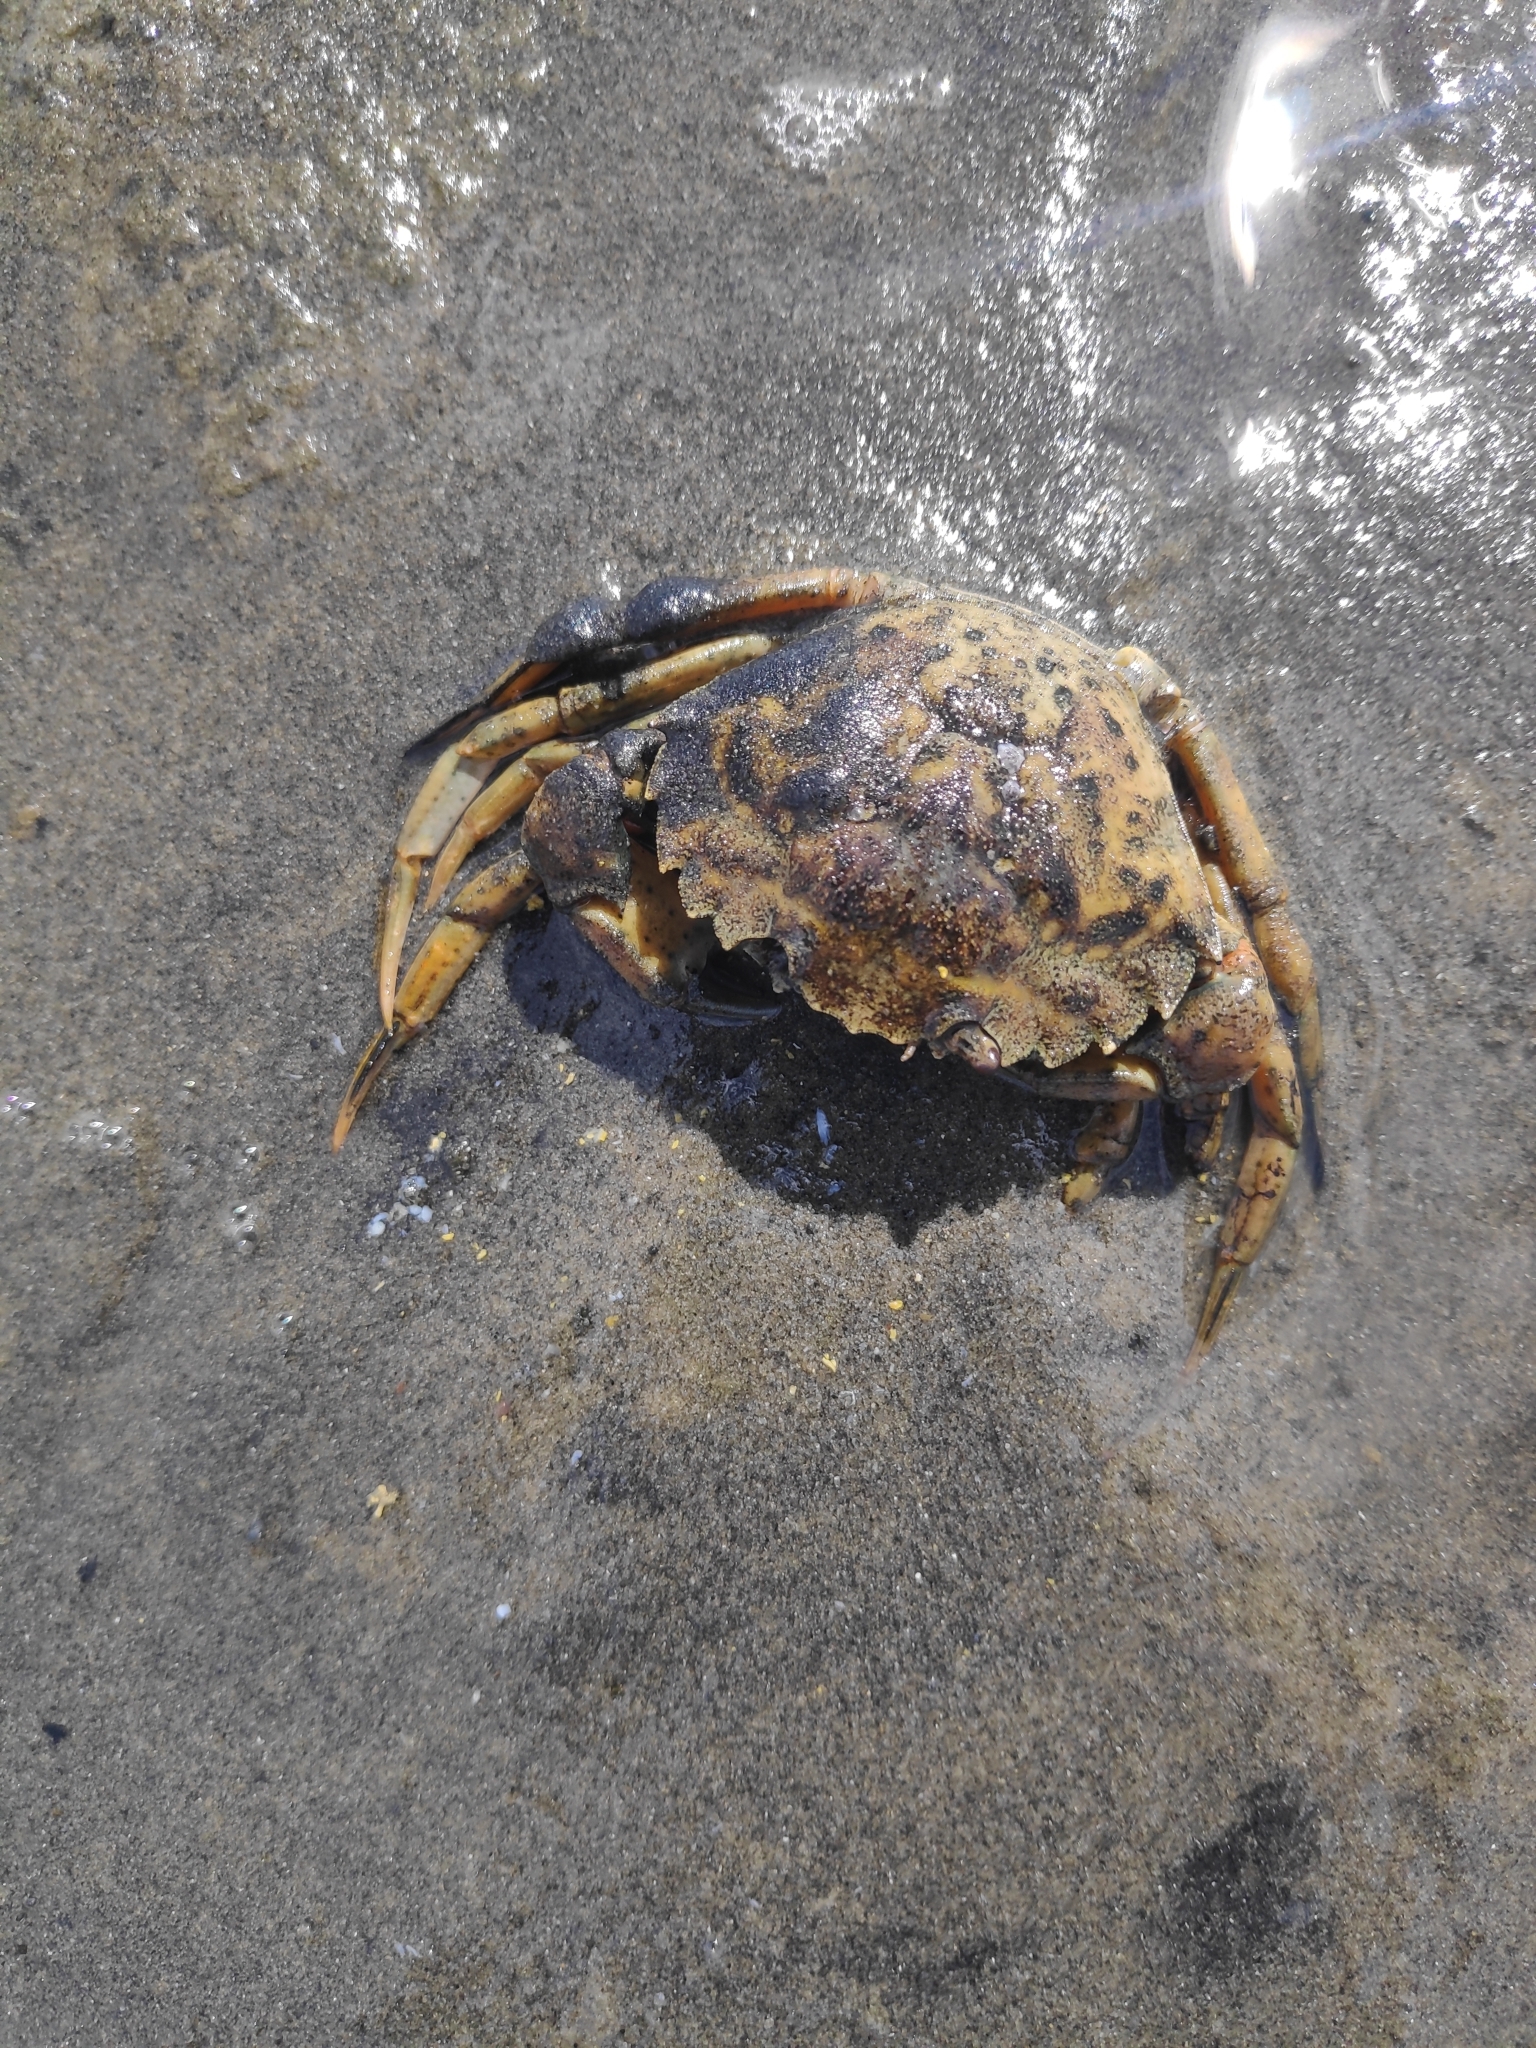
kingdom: Animalia
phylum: Arthropoda
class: Malacostraca
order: Decapoda
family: Carcinidae
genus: Carcinus
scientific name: Carcinus maenas
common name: European green crab
